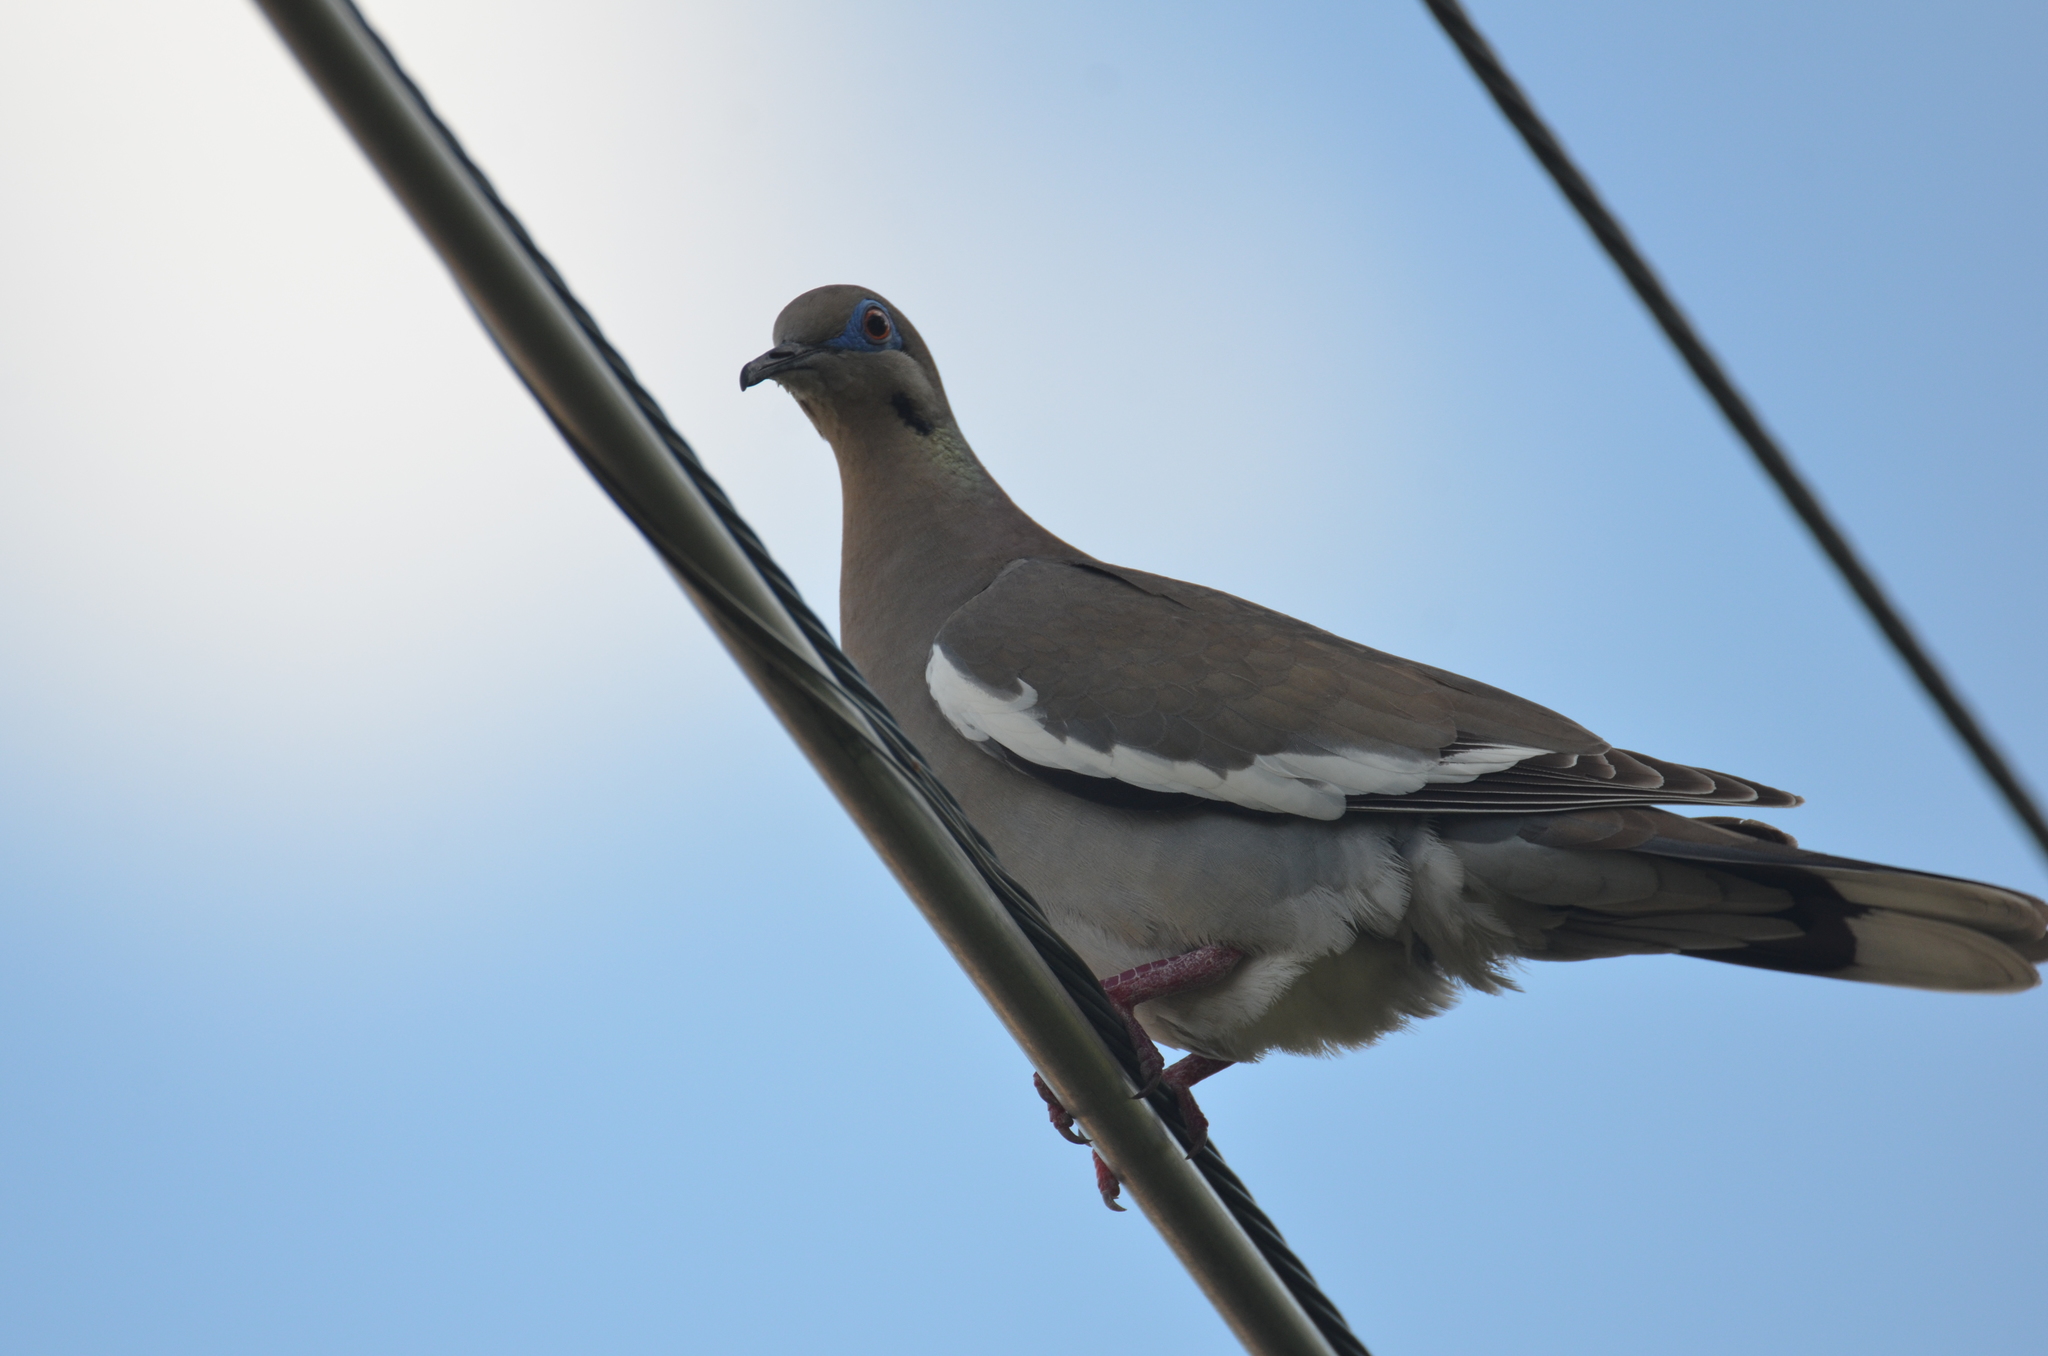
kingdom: Animalia
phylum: Chordata
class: Aves
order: Columbiformes
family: Columbidae
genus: Zenaida
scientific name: Zenaida asiatica
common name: White-winged dove
